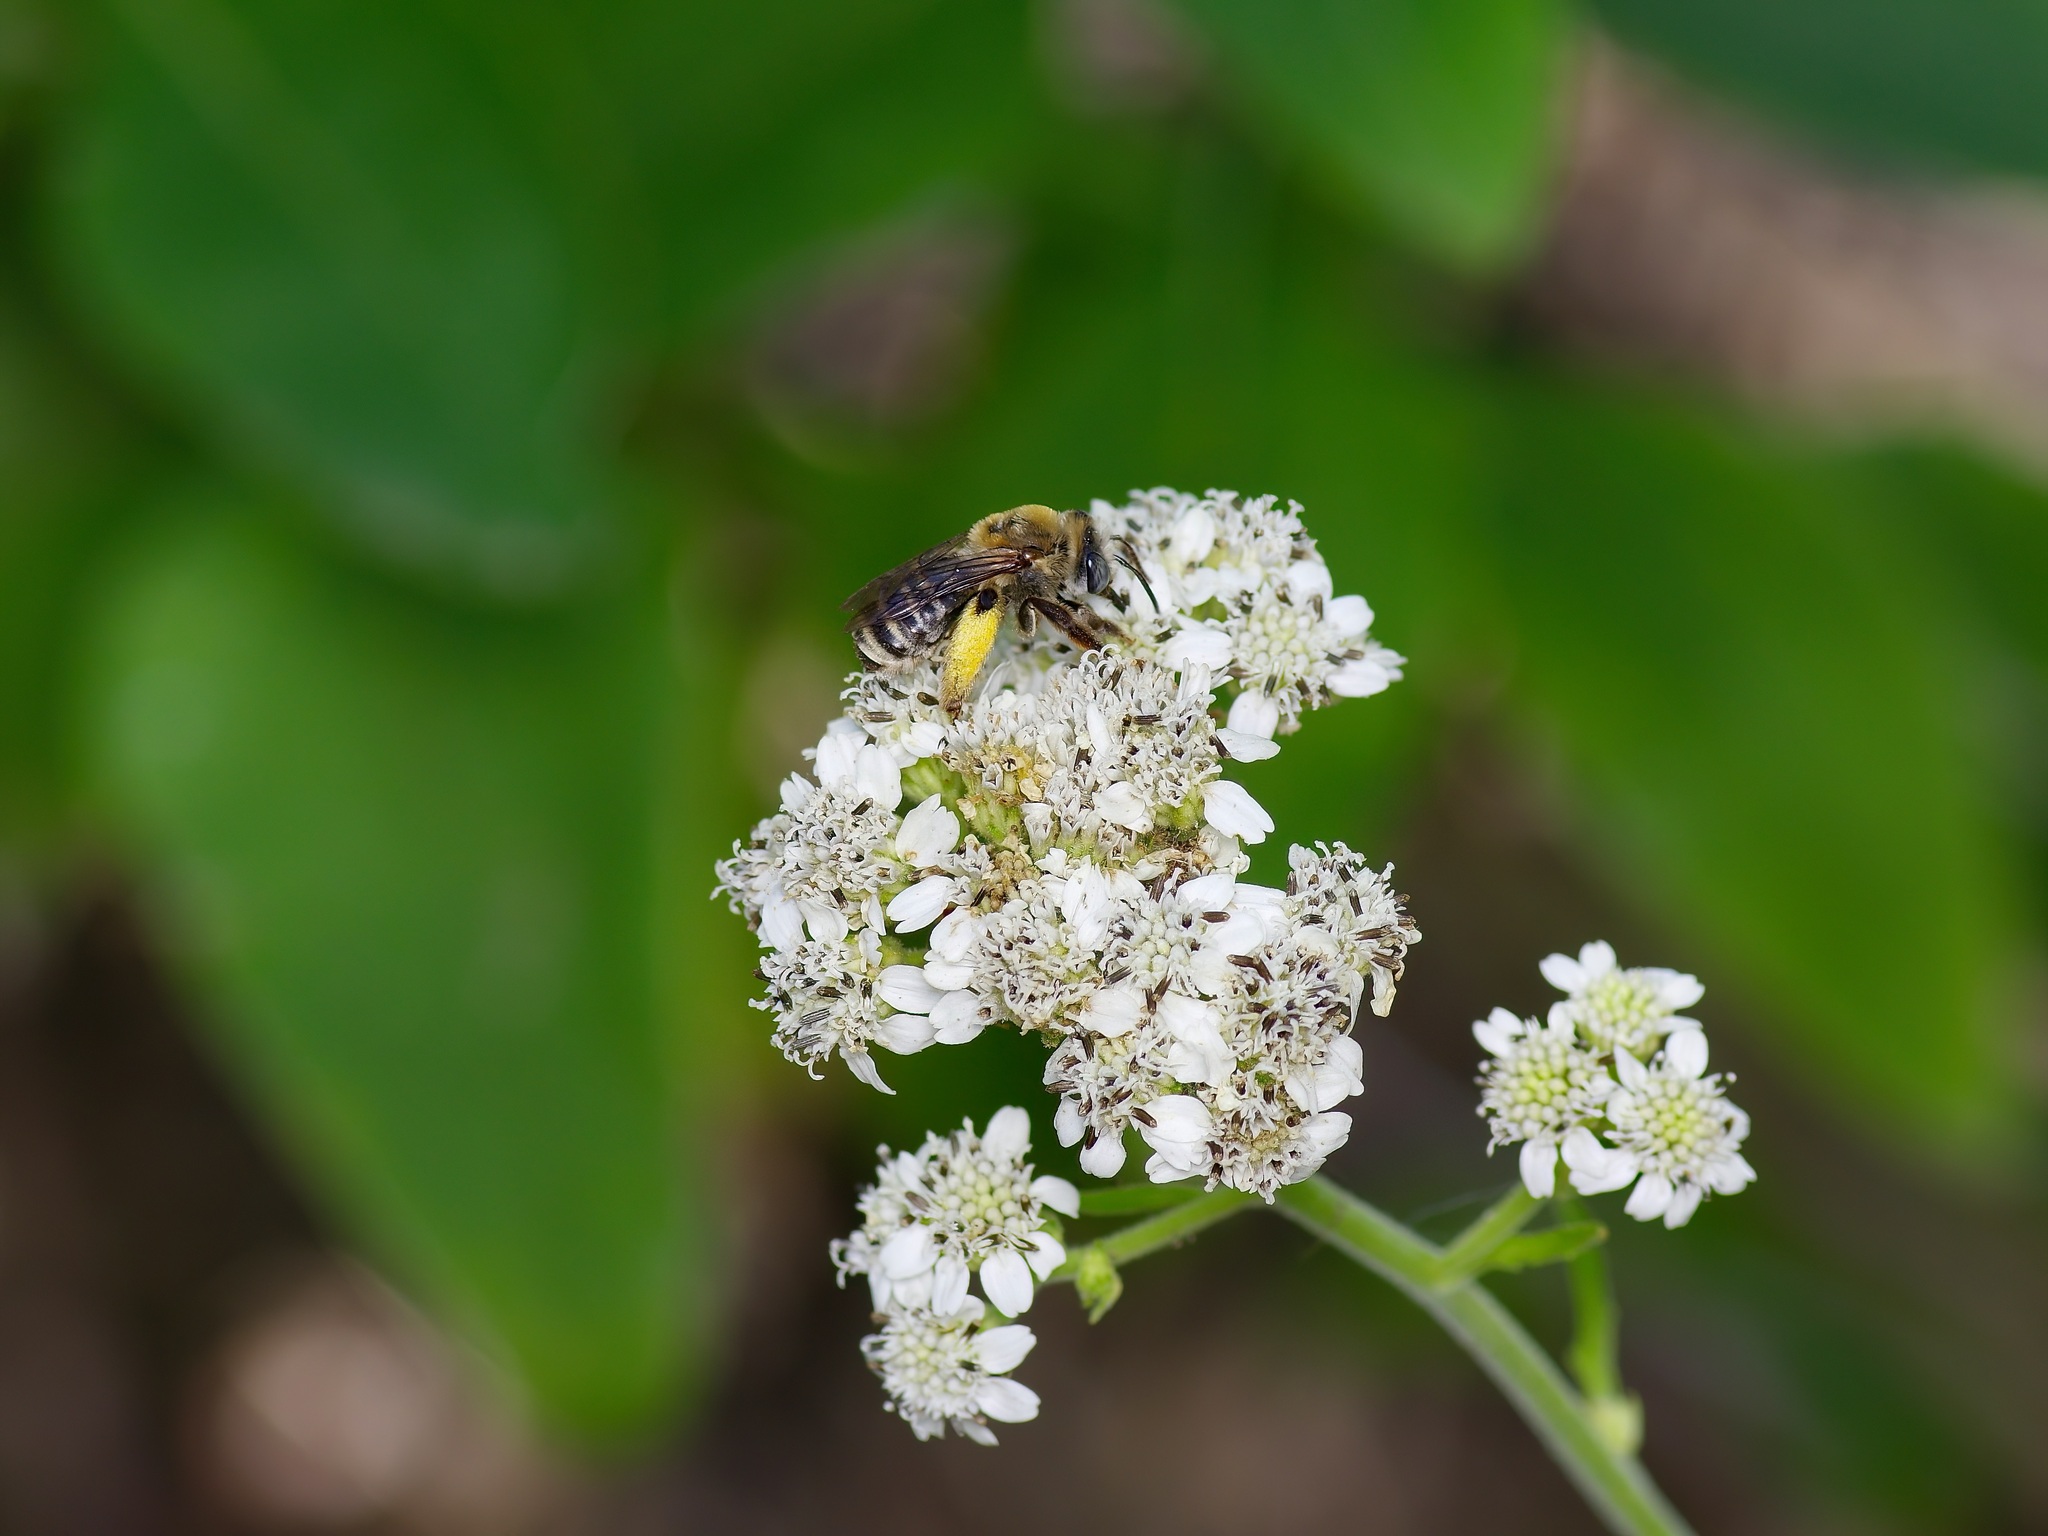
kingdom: Animalia
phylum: Arthropoda
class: Insecta
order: Hymenoptera
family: Apidae
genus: Melissodes
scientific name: Melissodes tepaneca
